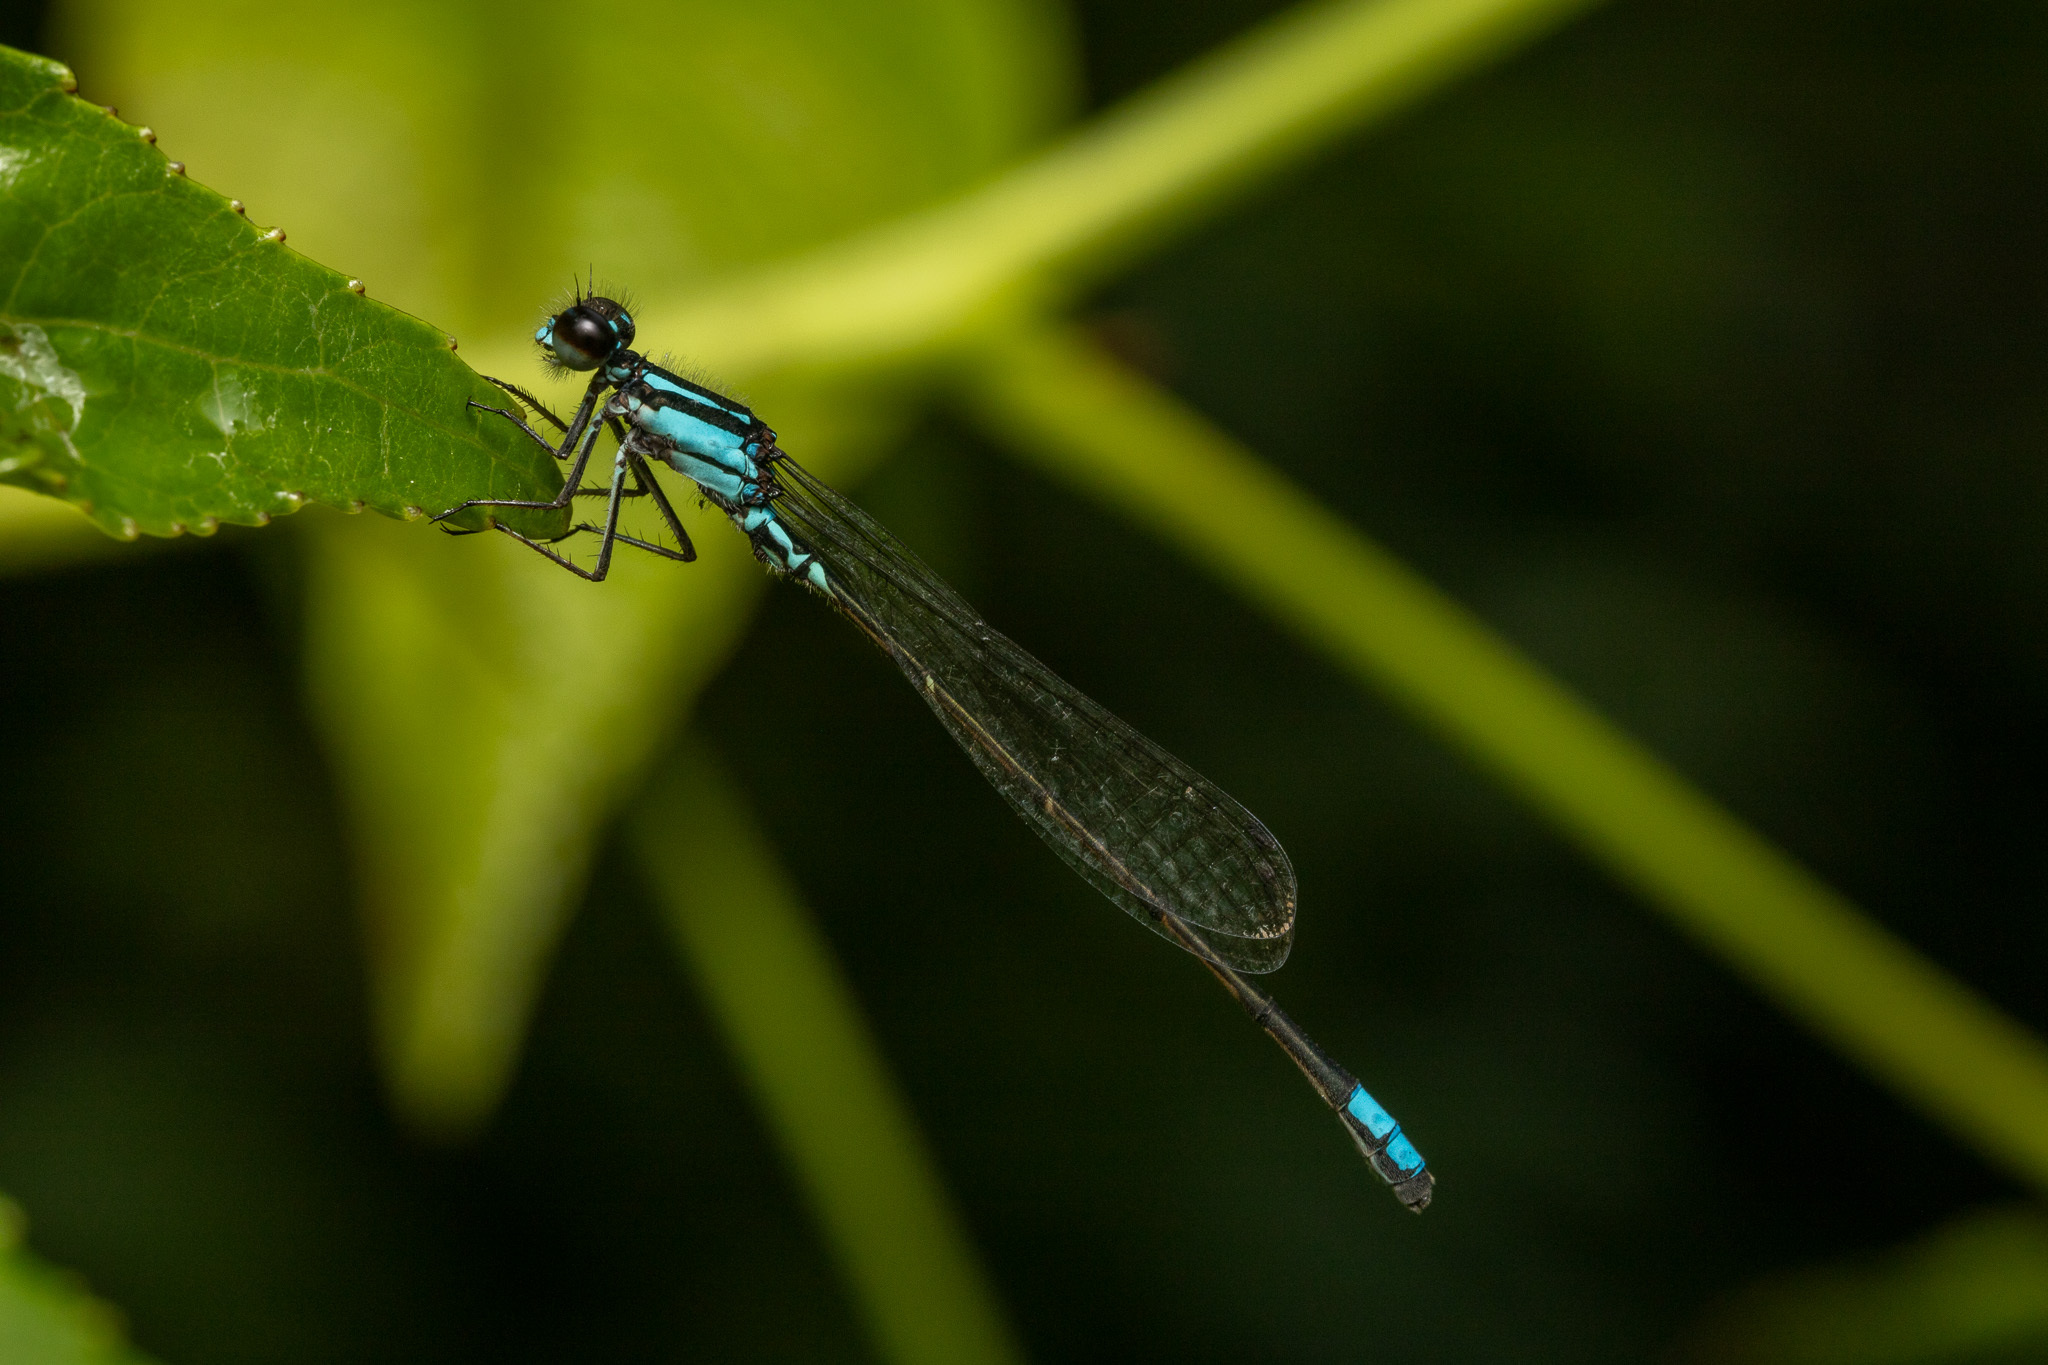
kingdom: Animalia
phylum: Arthropoda
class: Insecta
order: Odonata
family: Coenagrionidae
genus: Enallagma
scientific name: Enallagma geminatum
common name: Skimming bluet
